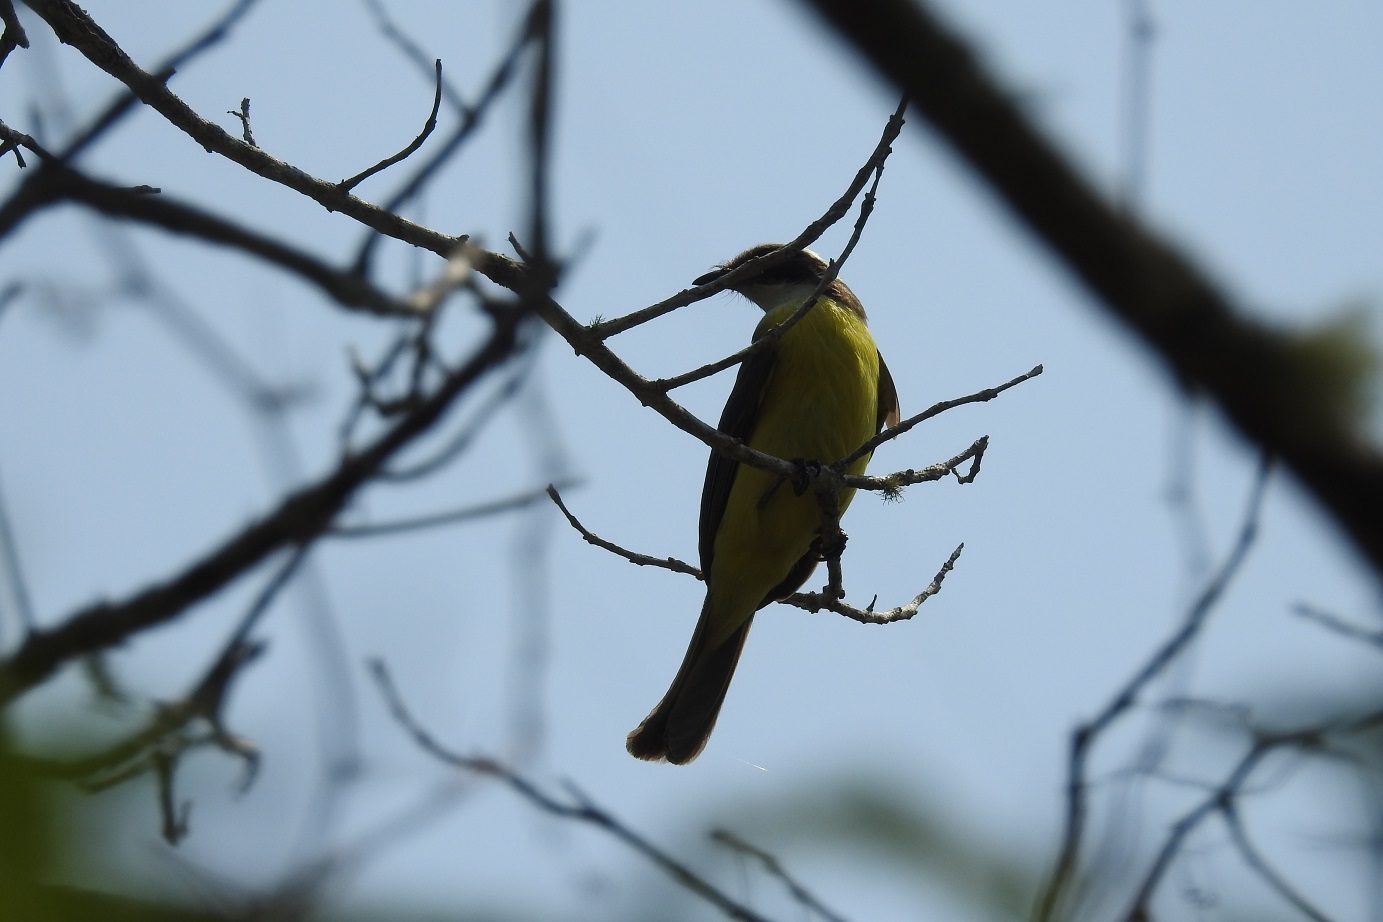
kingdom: Animalia
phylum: Chordata
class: Aves
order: Passeriformes
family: Tyrannidae
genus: Myiozetetes
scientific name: Myiozetetes similis
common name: Social flycatcher
